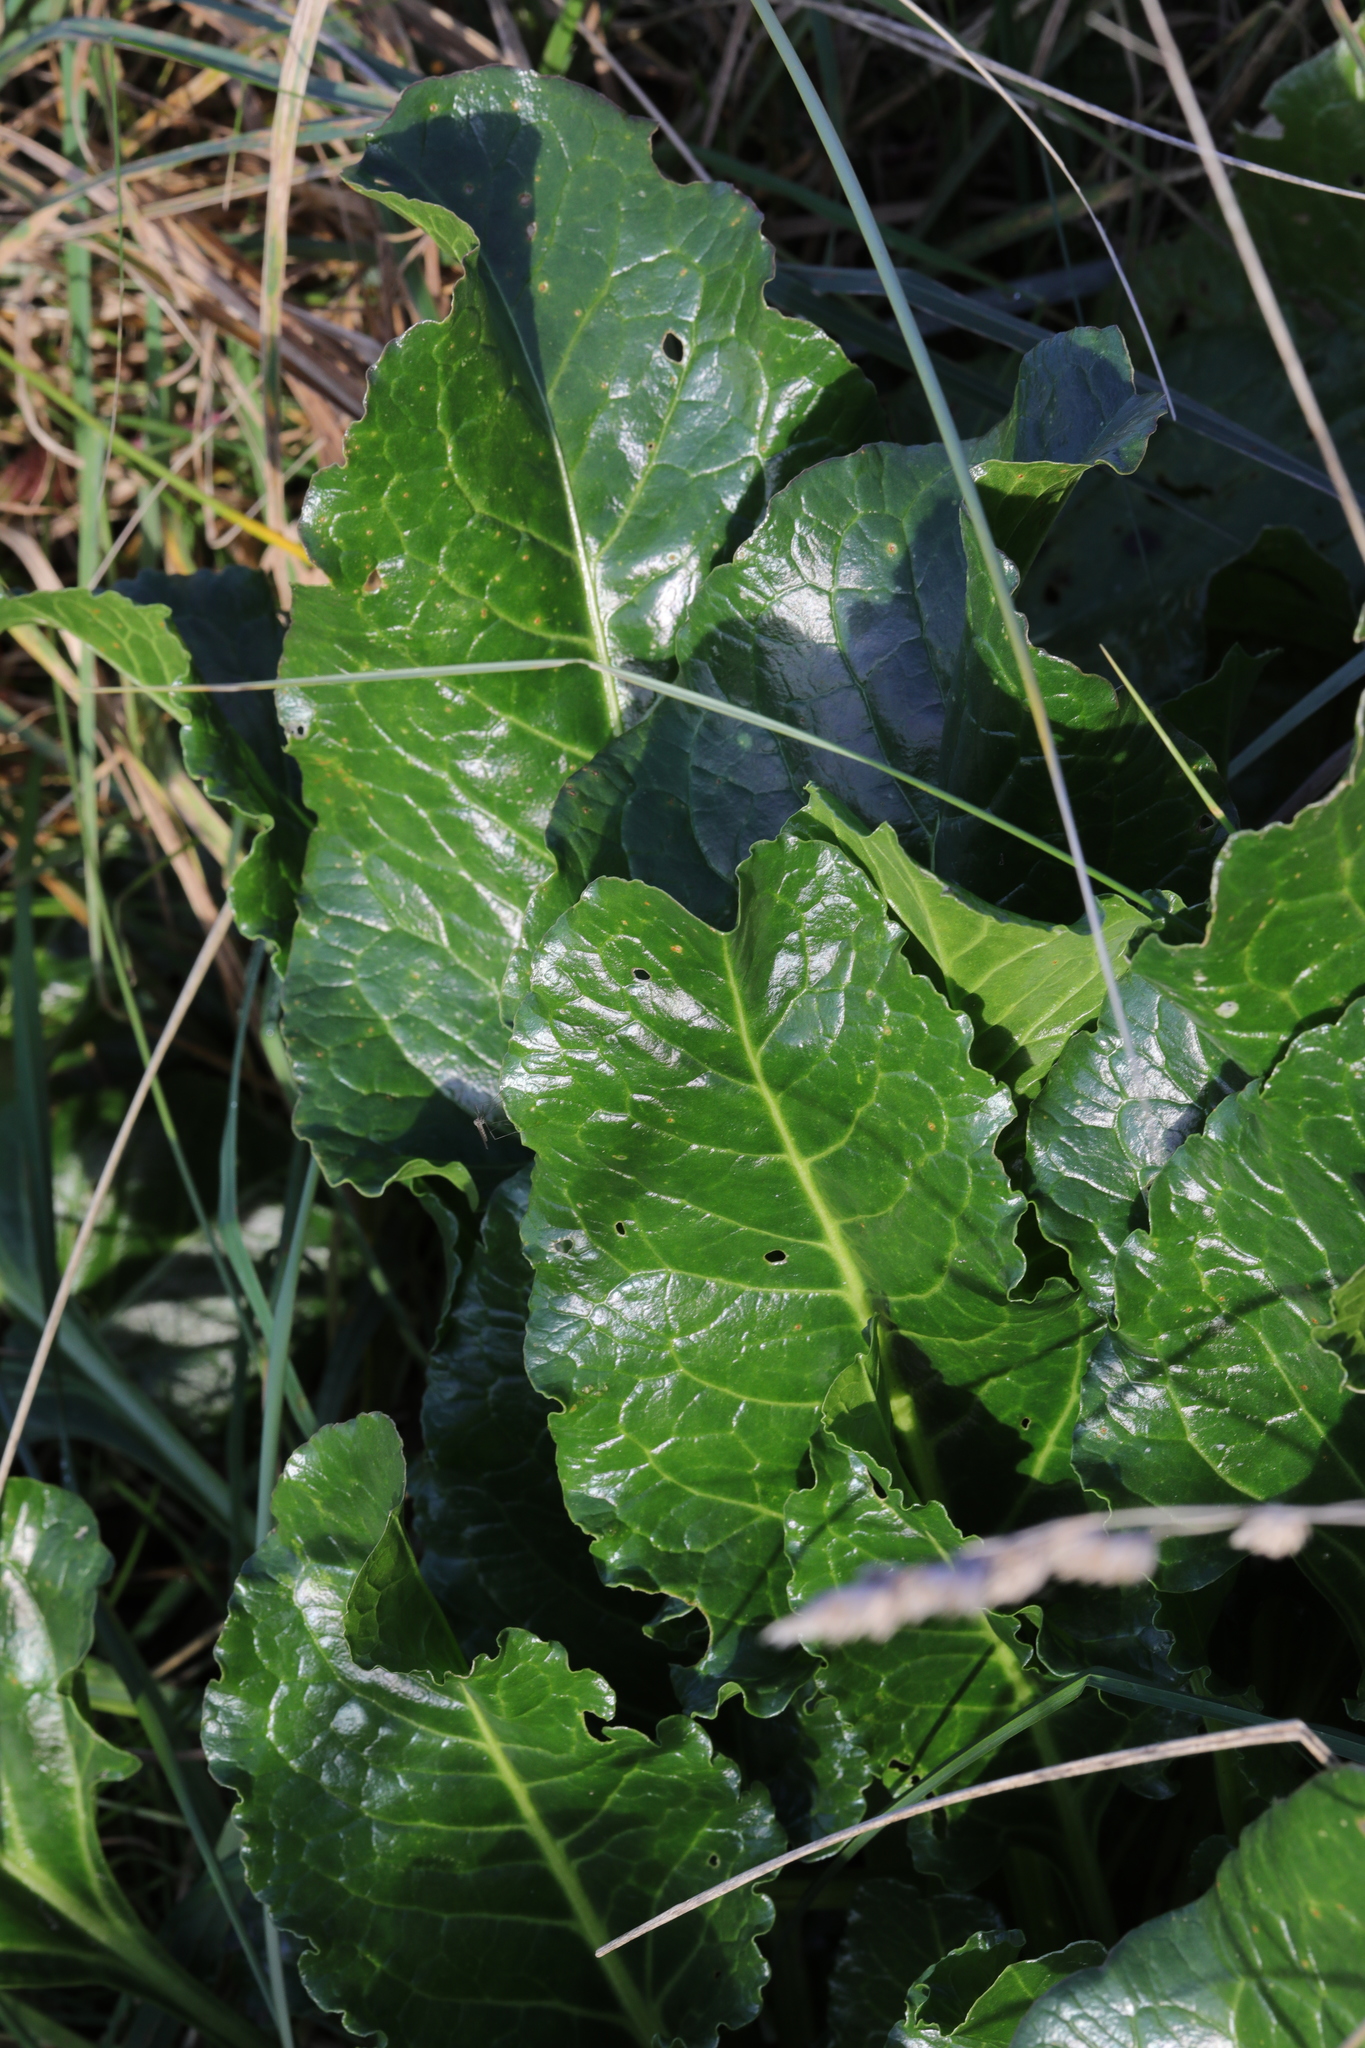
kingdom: Plantae
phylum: Tracheophyta
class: Magnoliopsida
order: Caryophyllales
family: Amaranthaceae
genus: Beta
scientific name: Beta vulgaris
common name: Beet
